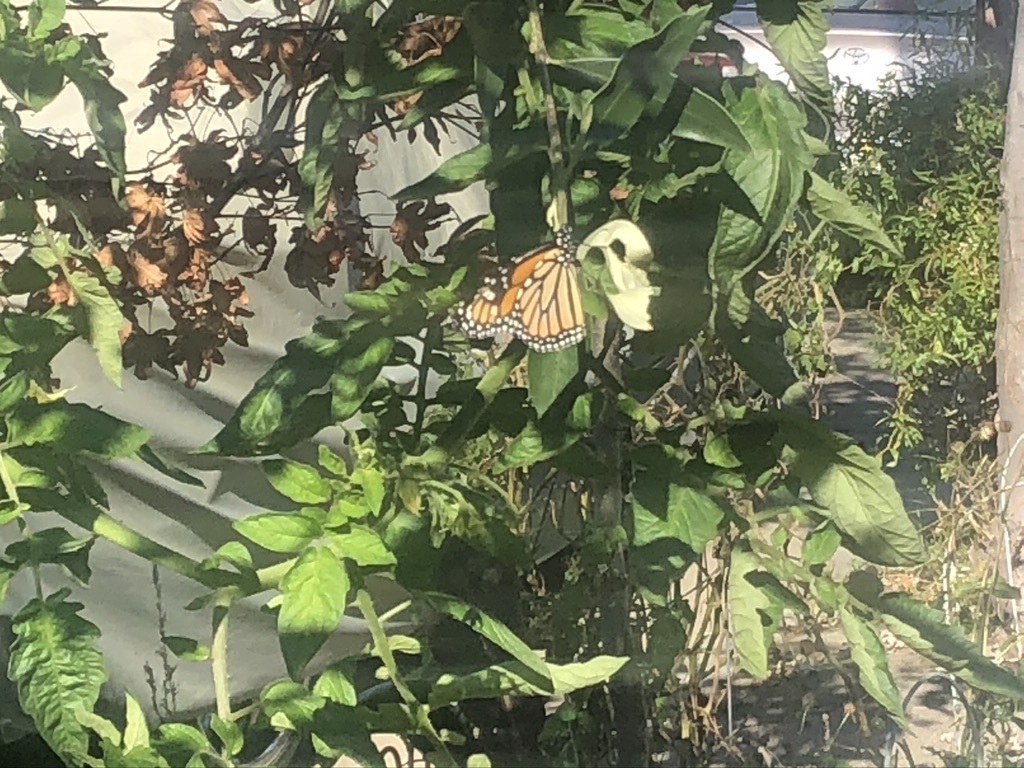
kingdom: Animalia
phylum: Arthropoda
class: Insecta
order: Lepidoptera
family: Nymphalidae
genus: Danaus
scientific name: Danaus plexippus
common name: Monarch
